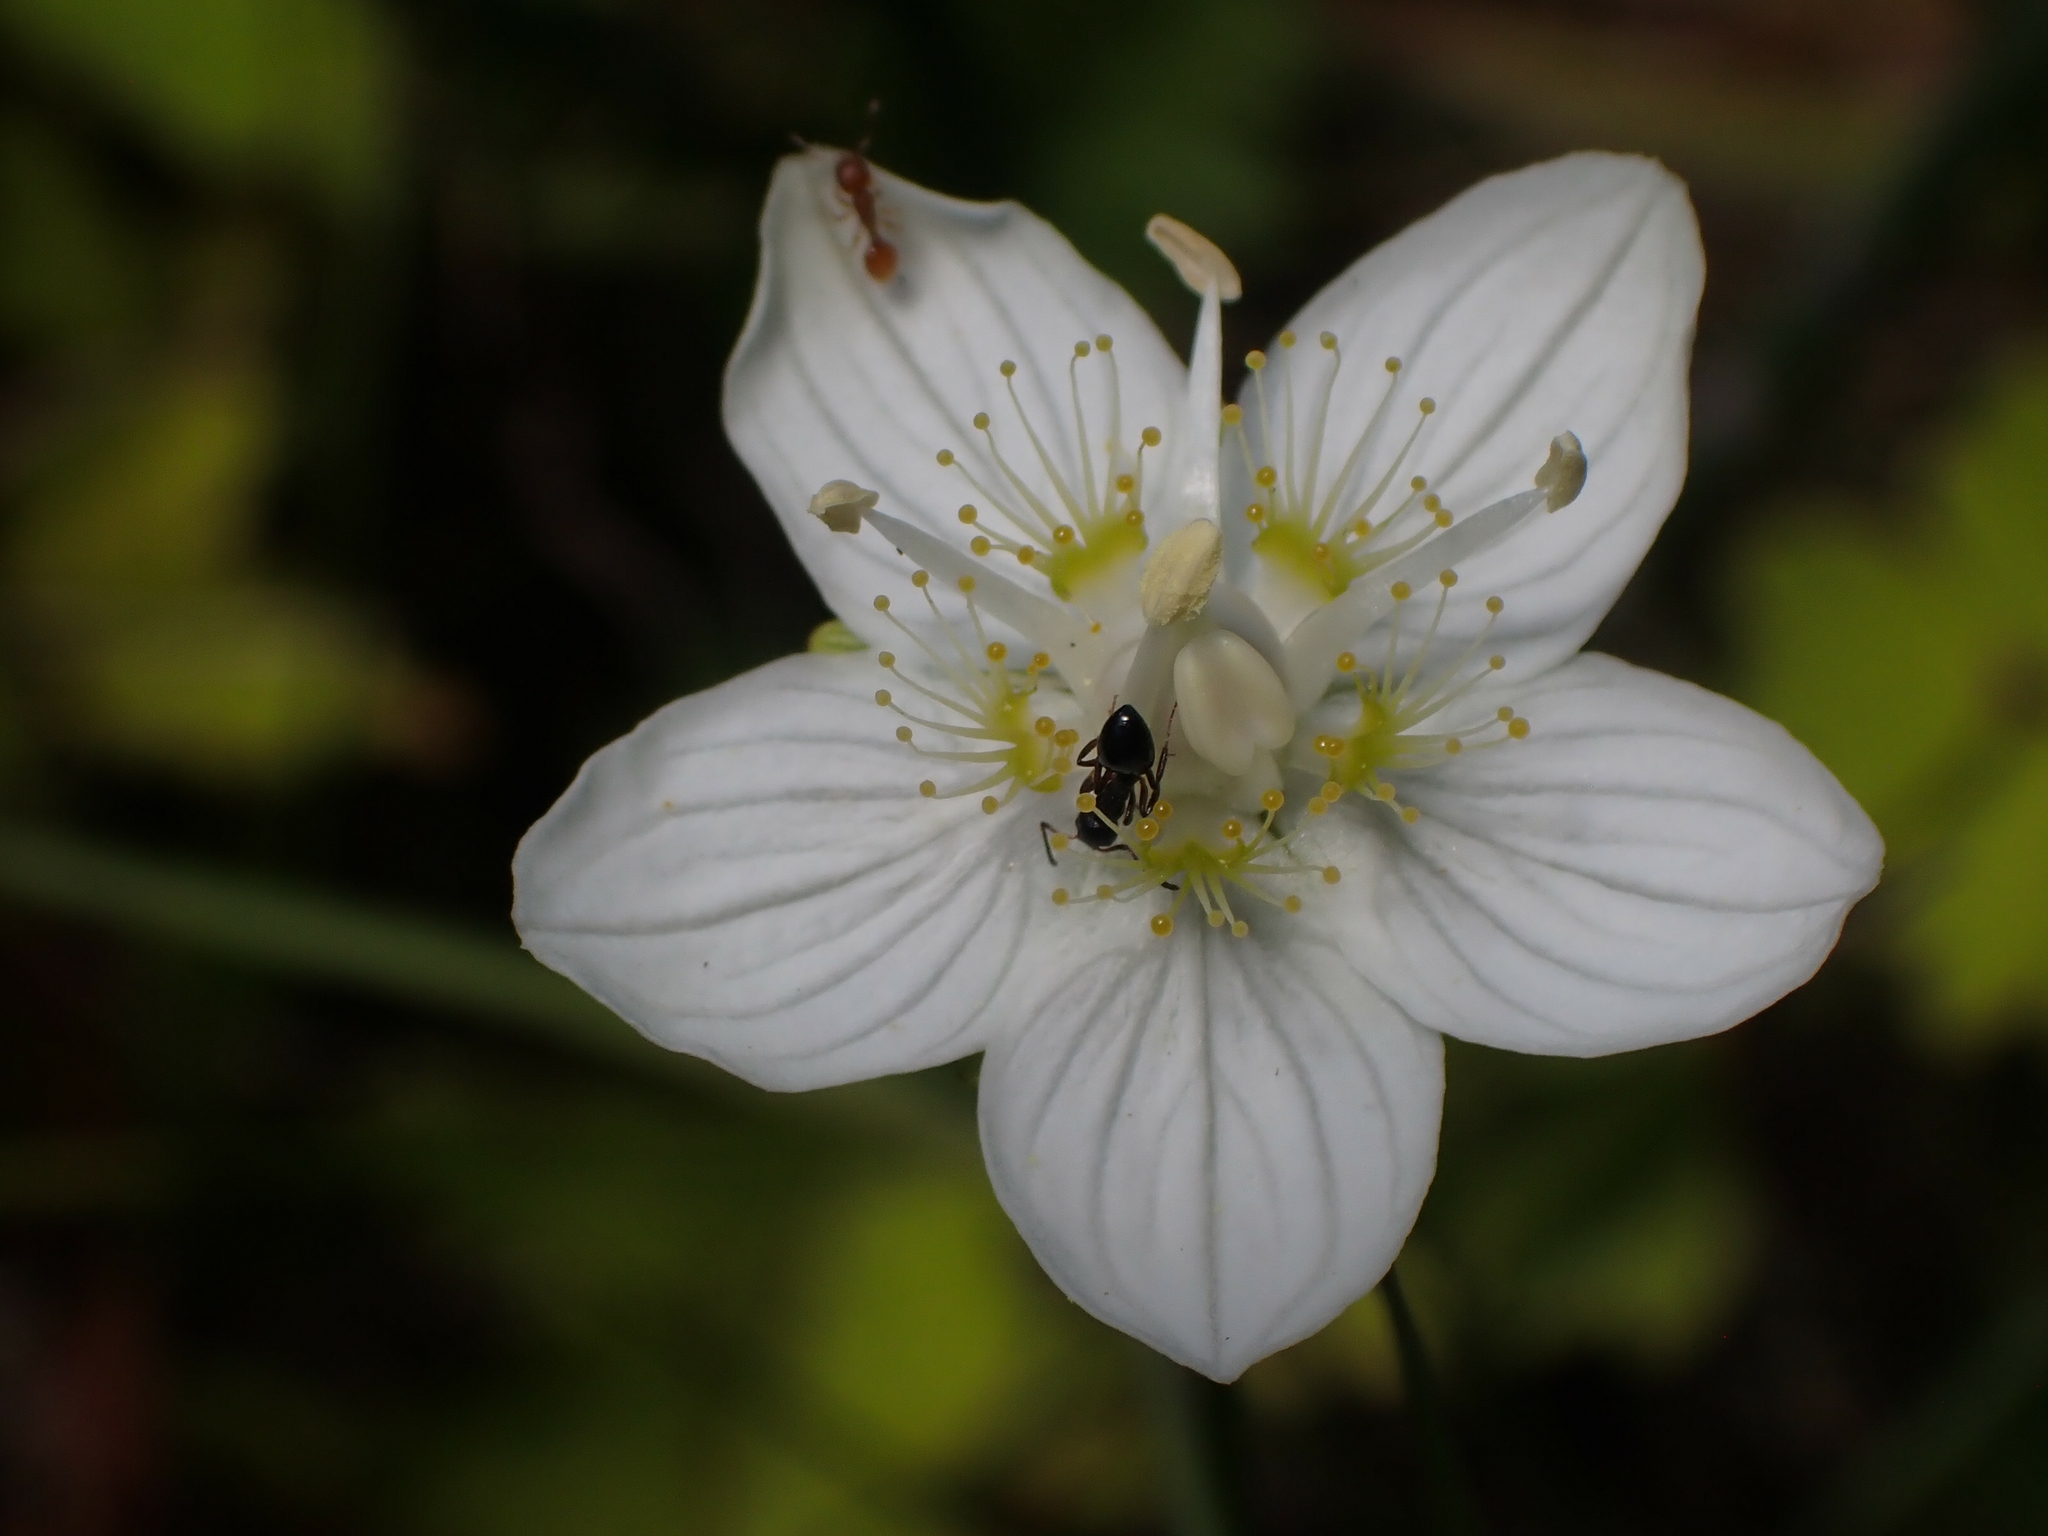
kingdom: Plantae
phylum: Tracheophyta
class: Magnoliopsida
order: Celastrales
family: Parnassiaceae
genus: Parnassia
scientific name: Parnassia palustris
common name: Grass-of-parnassus
